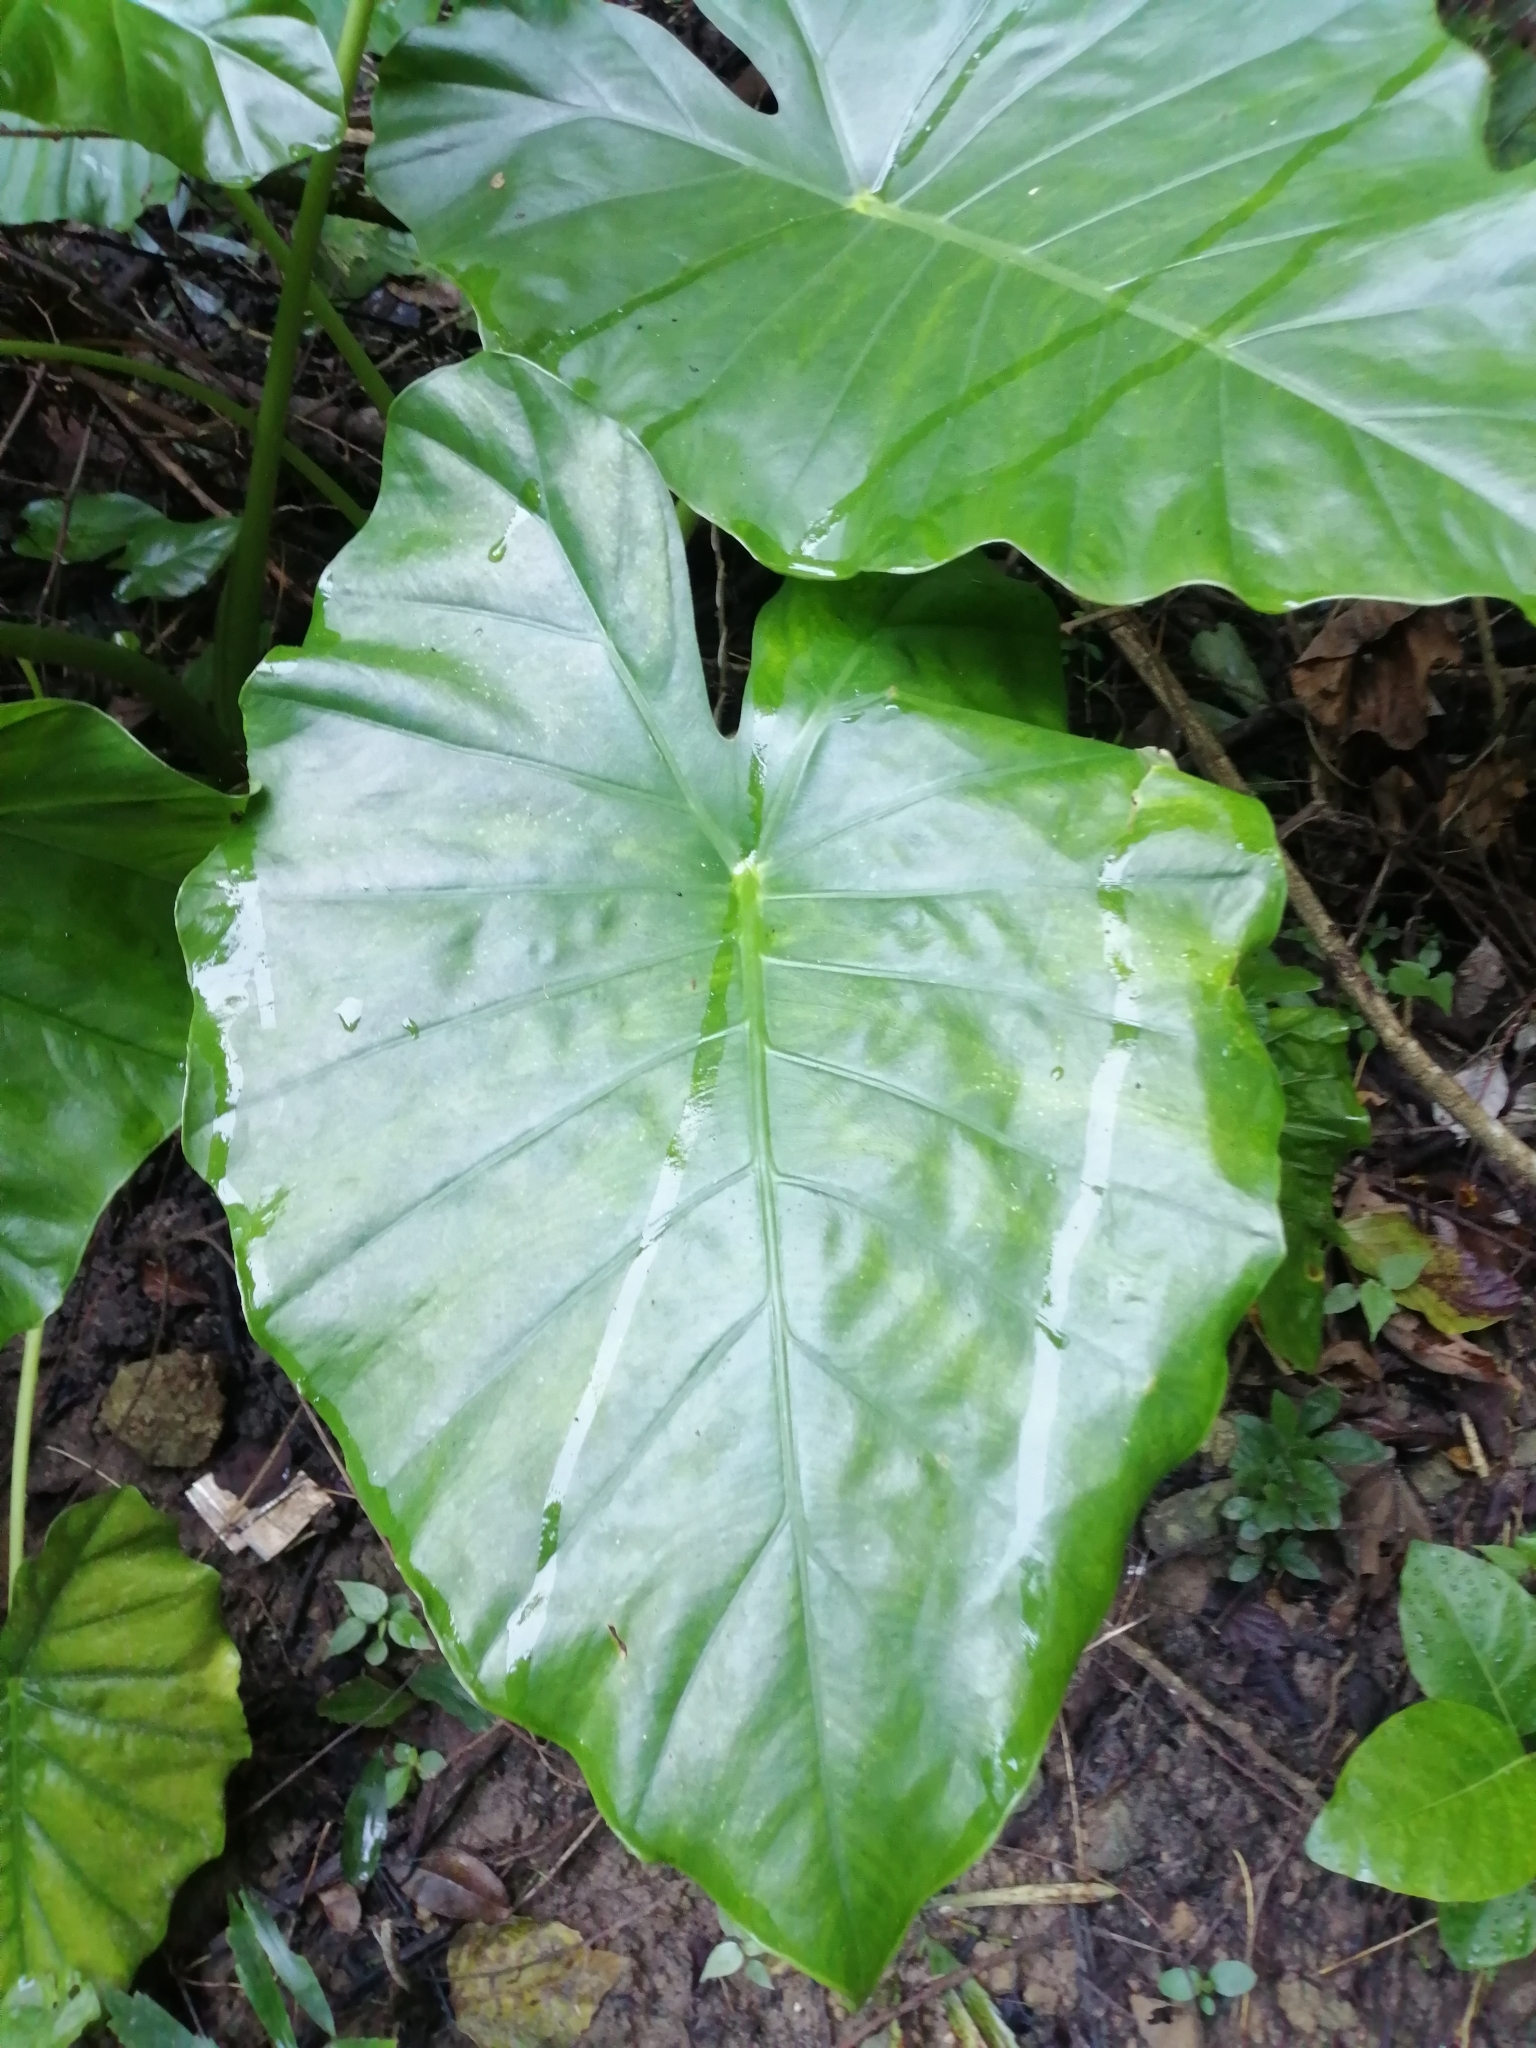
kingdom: Plantae
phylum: Tracheophyta
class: Liliopsida
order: Alismatales
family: Araceae
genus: Alocasia
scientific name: Alocasia odora
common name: Asian taro
